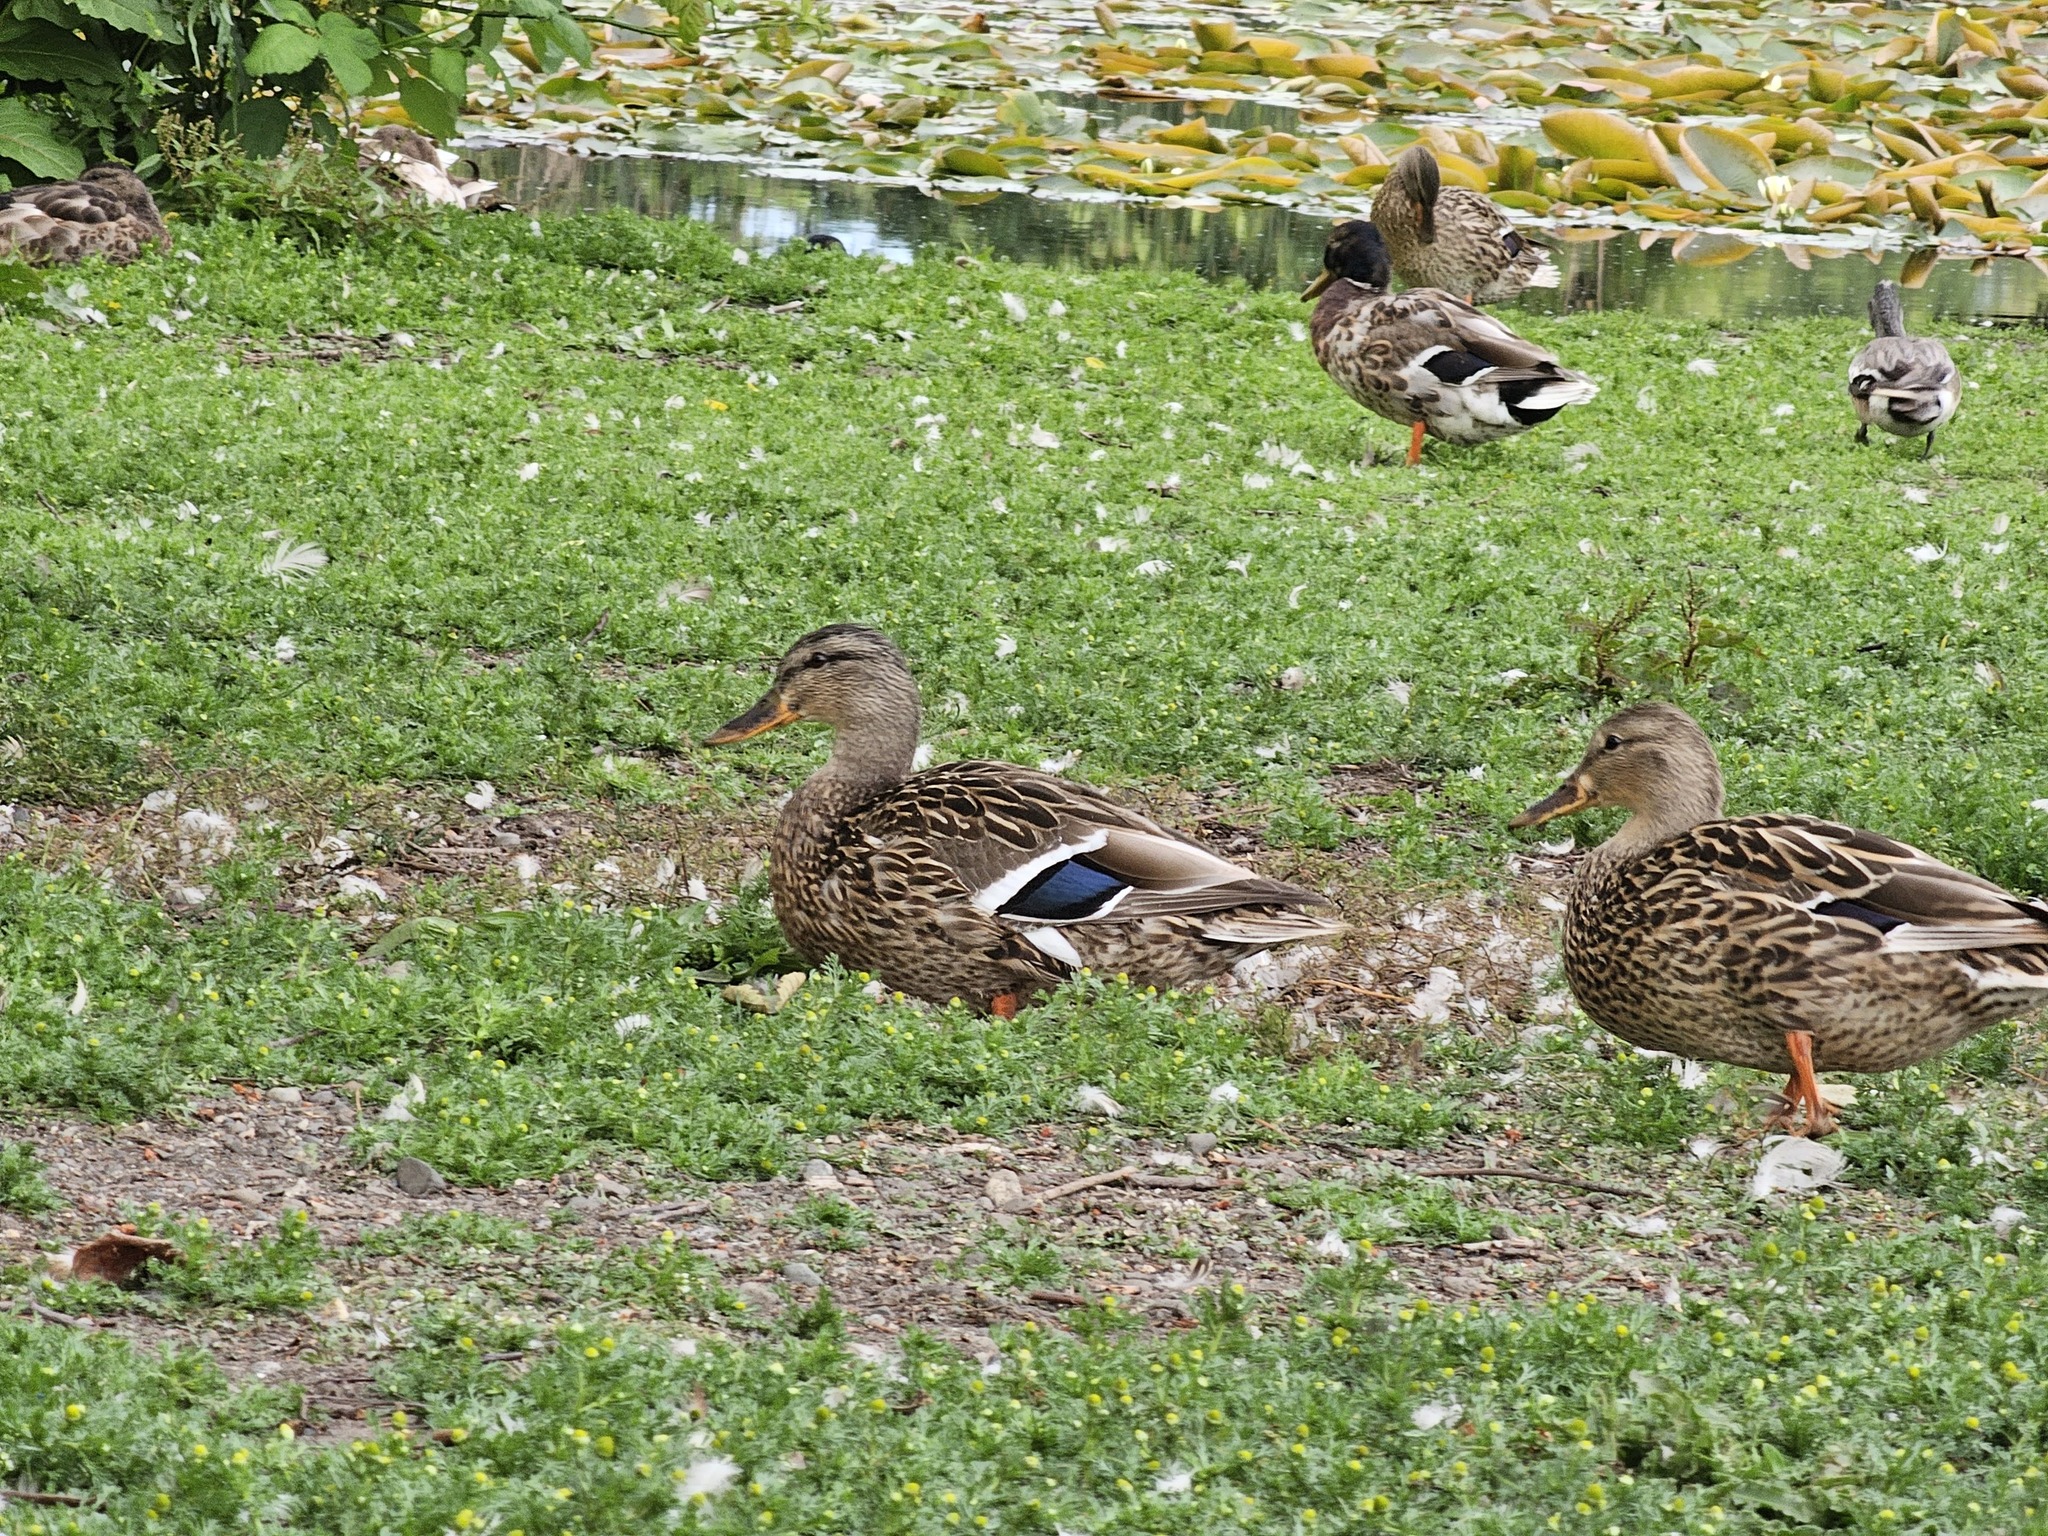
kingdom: Animalia
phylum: Chordata
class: Aves
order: Anseriformes
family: Anatidae
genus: Anas
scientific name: Anas platyrhynchos
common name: Mallard
